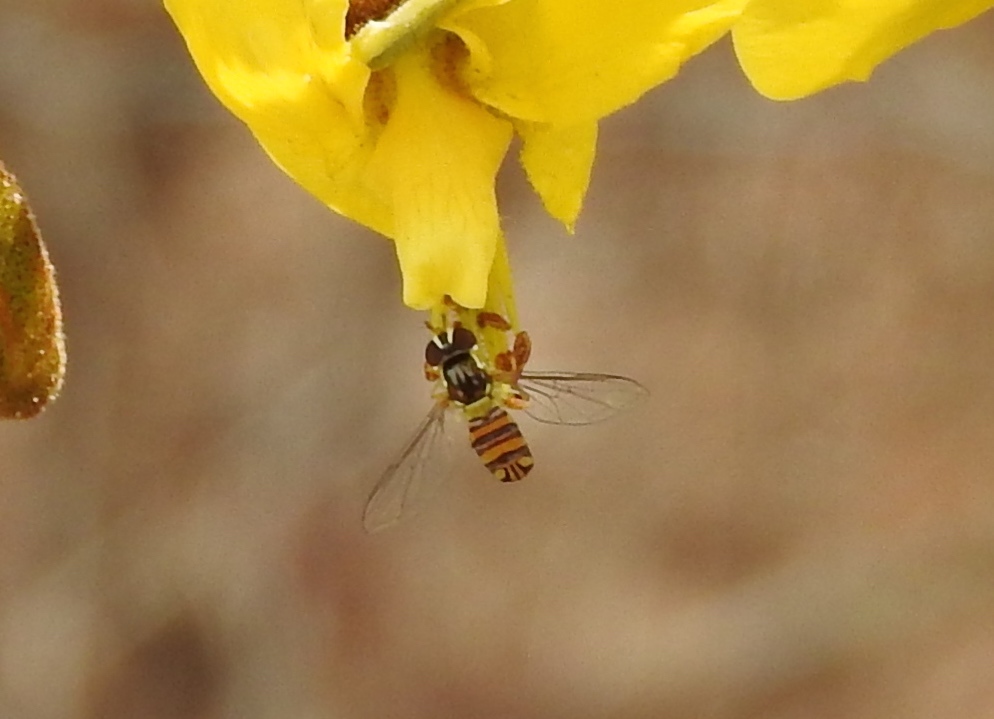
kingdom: Animalia
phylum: Arthropoda
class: Insecta
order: Diptera
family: Syrphidae
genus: Allograpta
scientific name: Allograpta obliqua
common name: Common oblique syrphid
